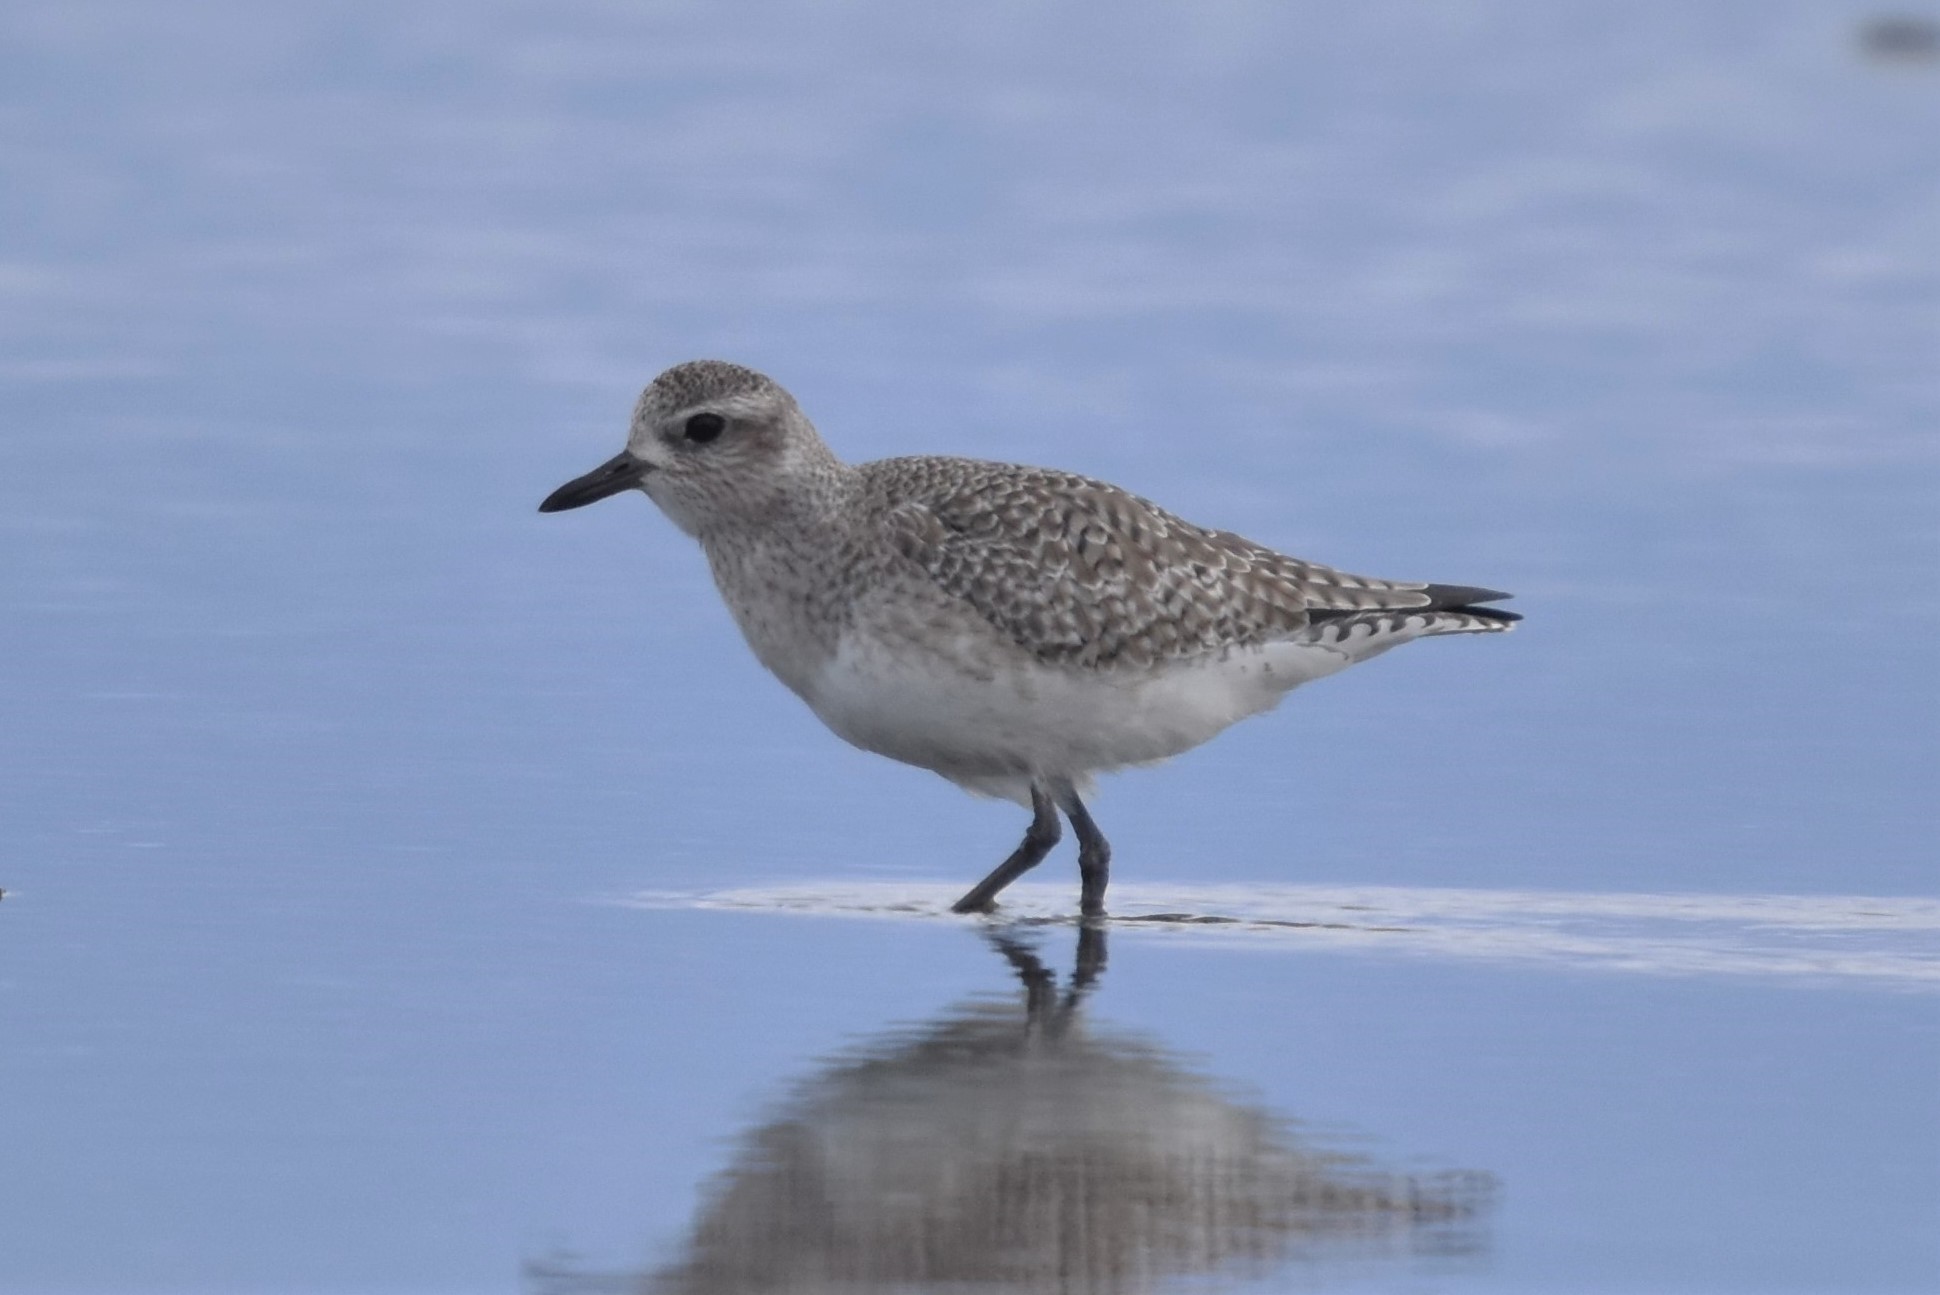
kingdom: Animalia
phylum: Chordata
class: Aves
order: Charadriiformes
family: Charadriidae
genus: Pluvialis
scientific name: Pluvialis squatarola
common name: Grey plover
